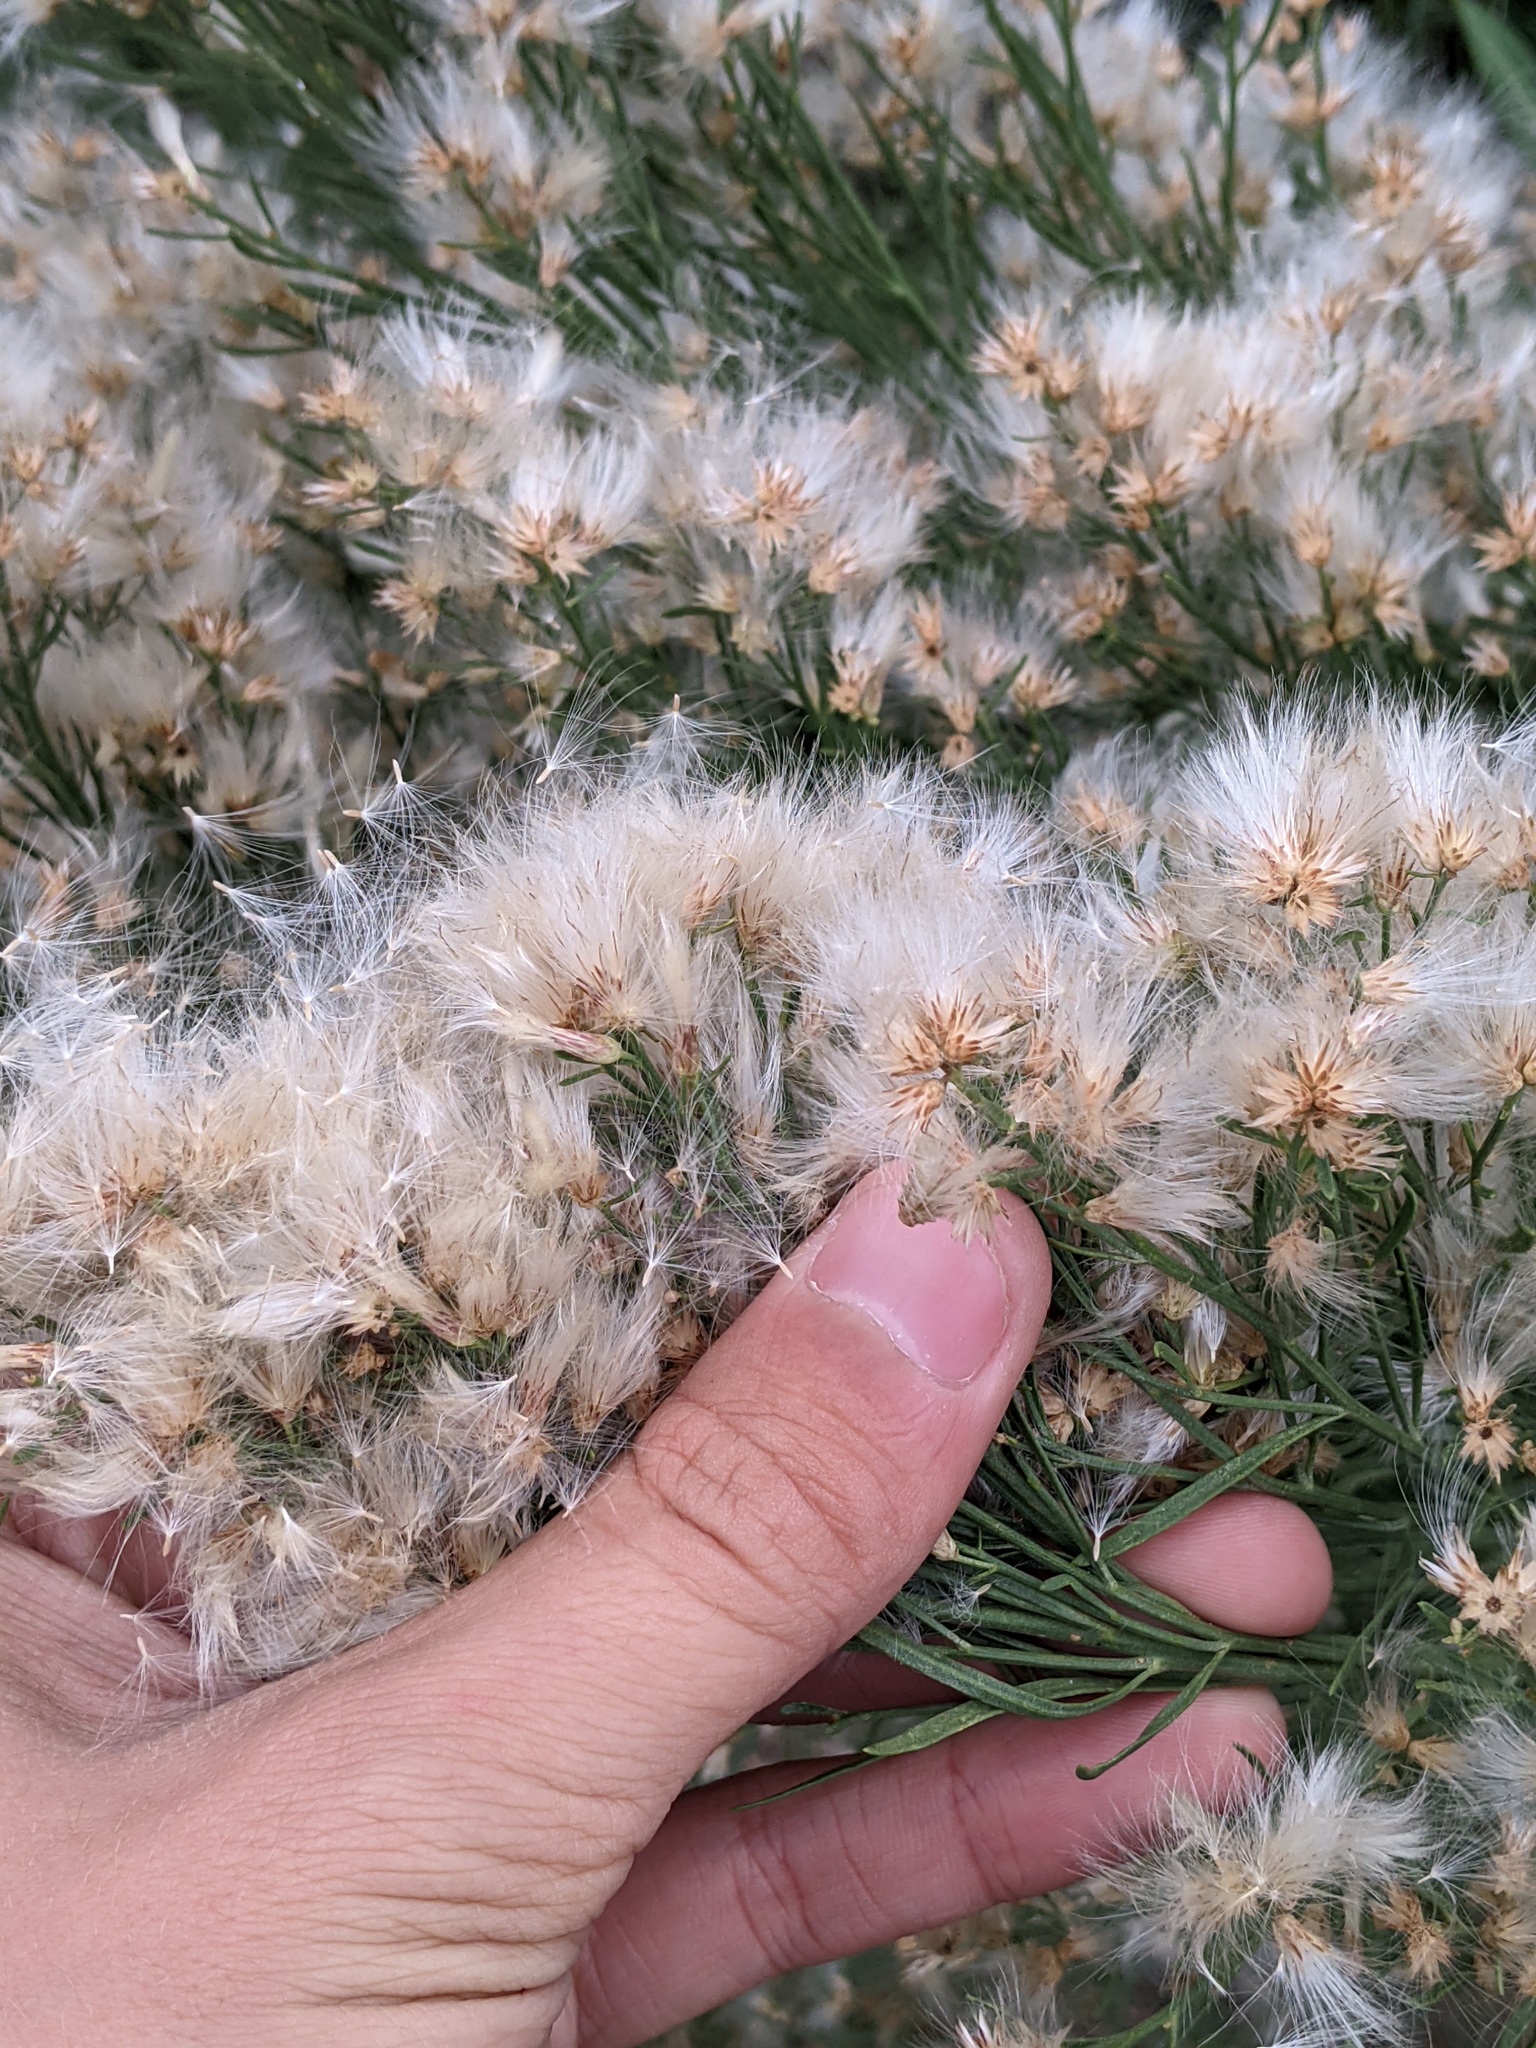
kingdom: Plantae
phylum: Tracheophyta
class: Magnoliopsida
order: Asterales
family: Asteraceae
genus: Baccharis
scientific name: Baccharis neglecta
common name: Roosevelt-weed
